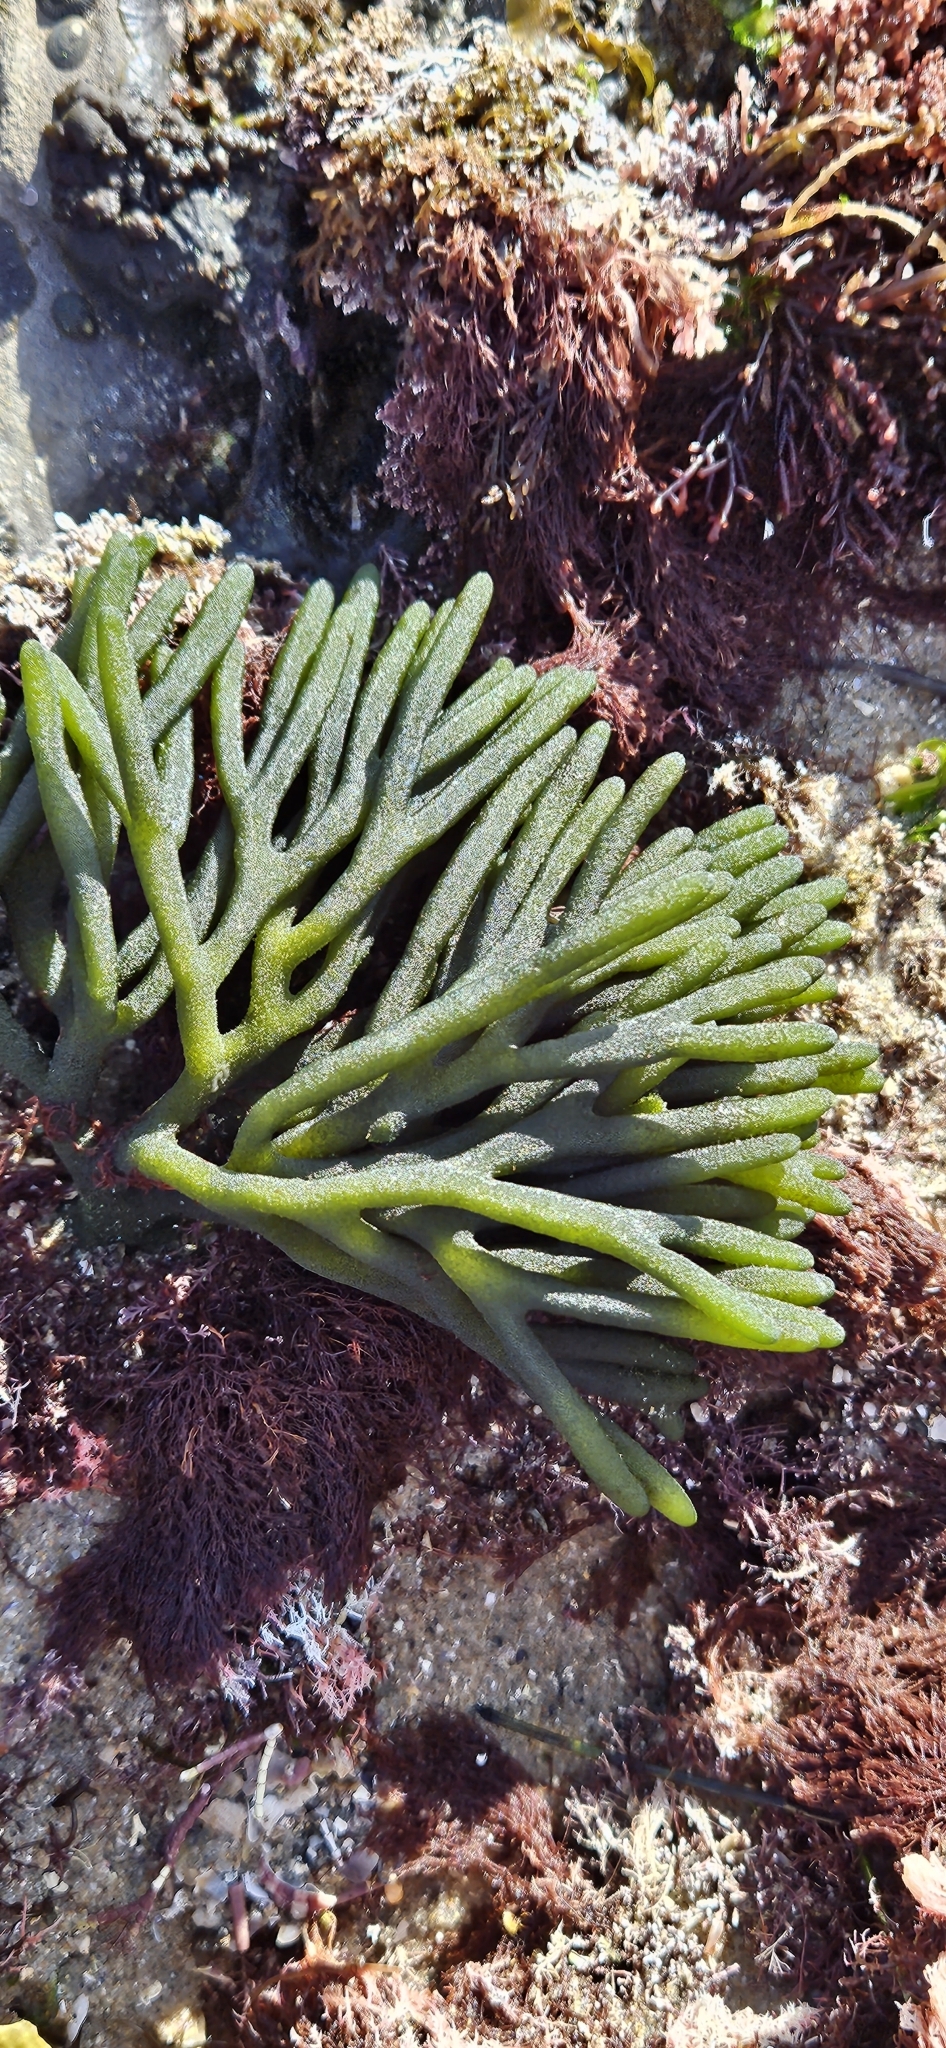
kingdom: Plantae
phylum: Chlorophyta
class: Ulvophyceae
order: Bryopsidales
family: Codiaceae
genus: Codium
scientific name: Codium fragile
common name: Dead man's fingers
